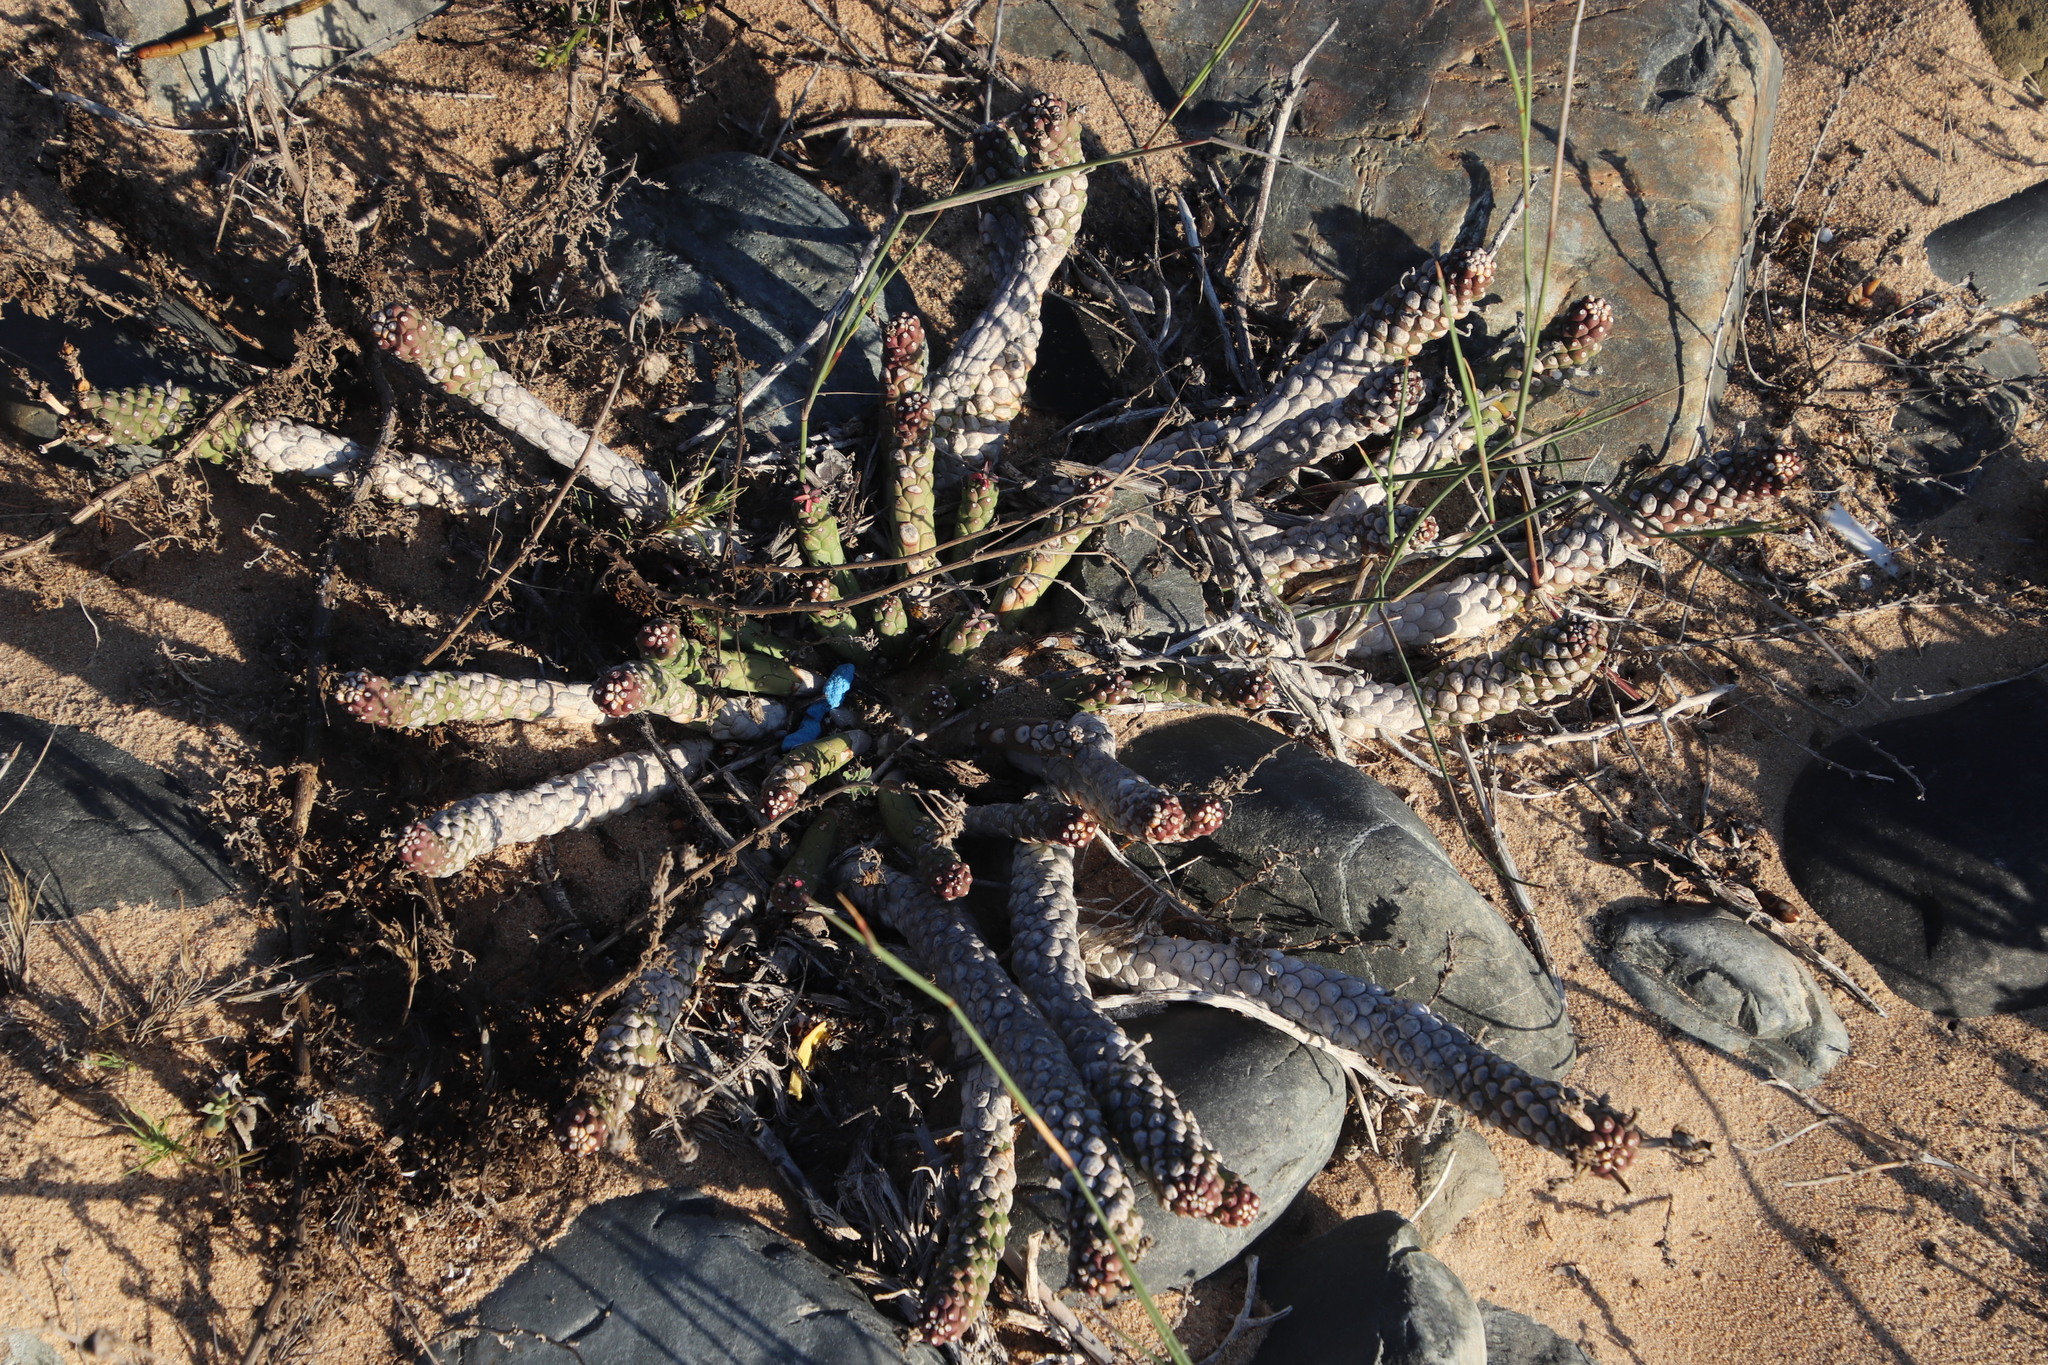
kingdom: Plantae
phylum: Tracheophyta
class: Magnoliopsida
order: Malpighiales
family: Euphorbiaceae
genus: Euphorbia
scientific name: Euphorbia caput-medusae
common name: Medusa's-head
